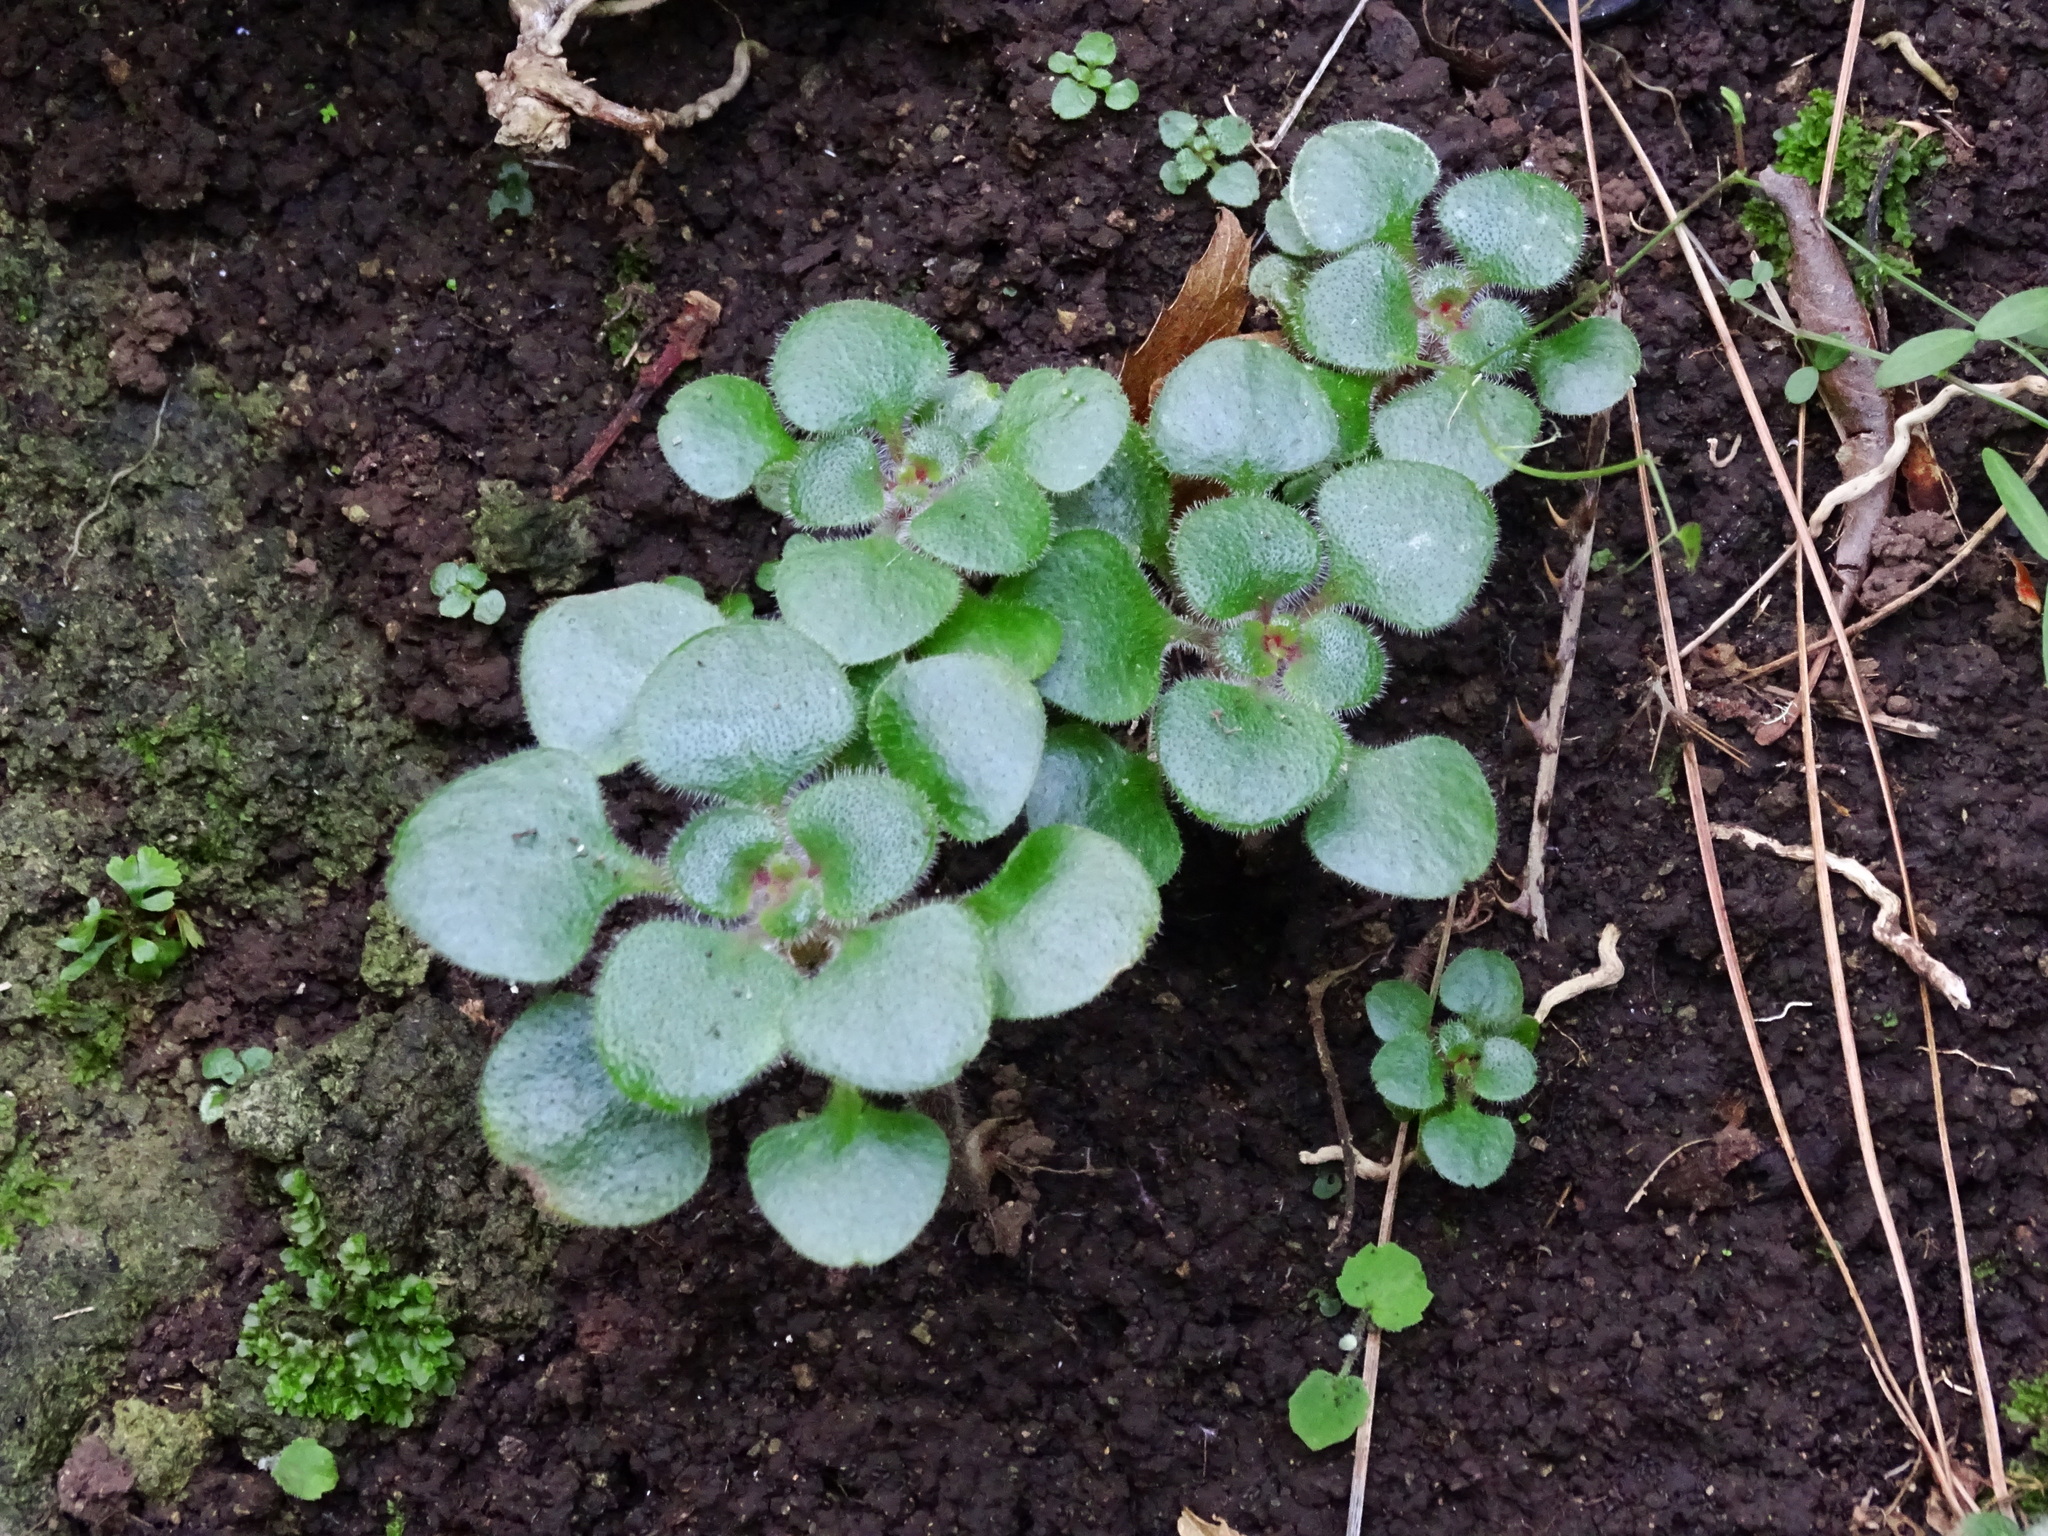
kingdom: Plantae
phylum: Tracheophyta
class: Magnoliopsida
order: Saxifragales
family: Crassulaceae
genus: Aichryson
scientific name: Aichryson laxum
